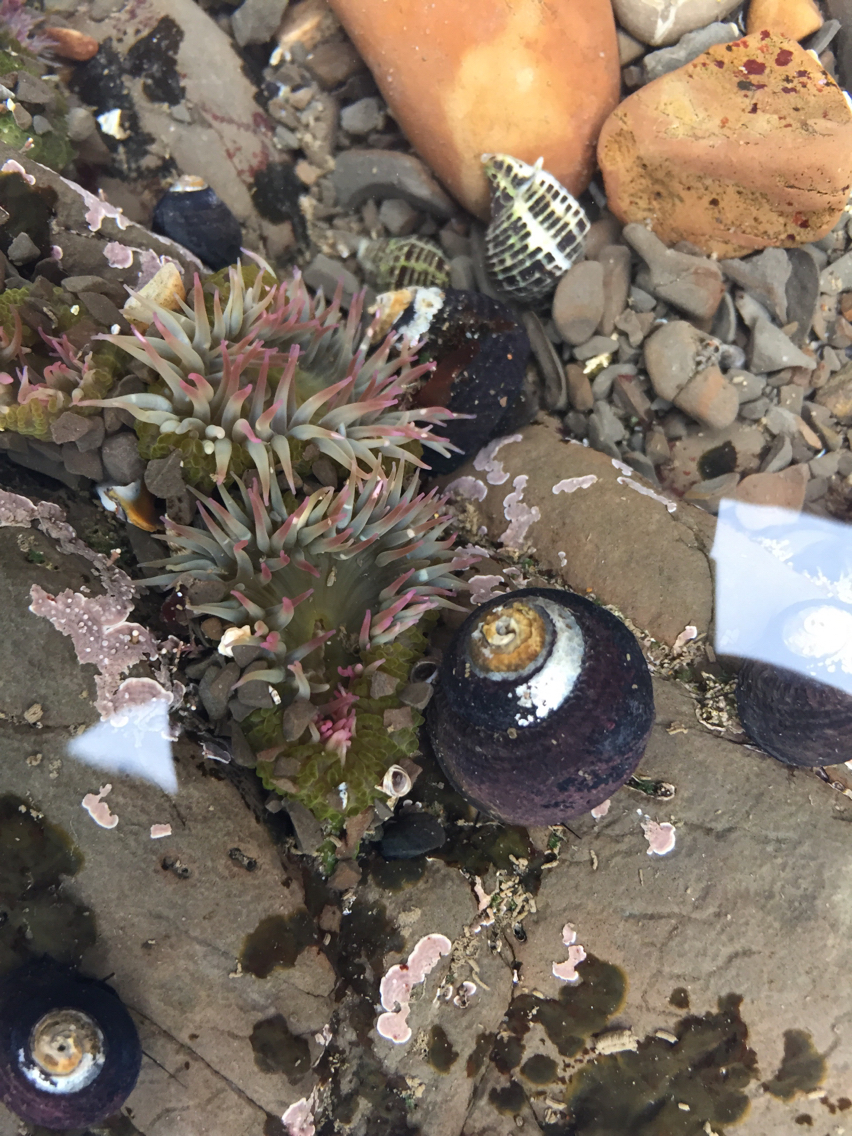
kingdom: Animalia
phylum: Cnidaria
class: Anthozoa
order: Actiniaria
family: Actiniidae
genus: Anthopleura
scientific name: Anthopleura elegantissima
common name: Clonal anemone
